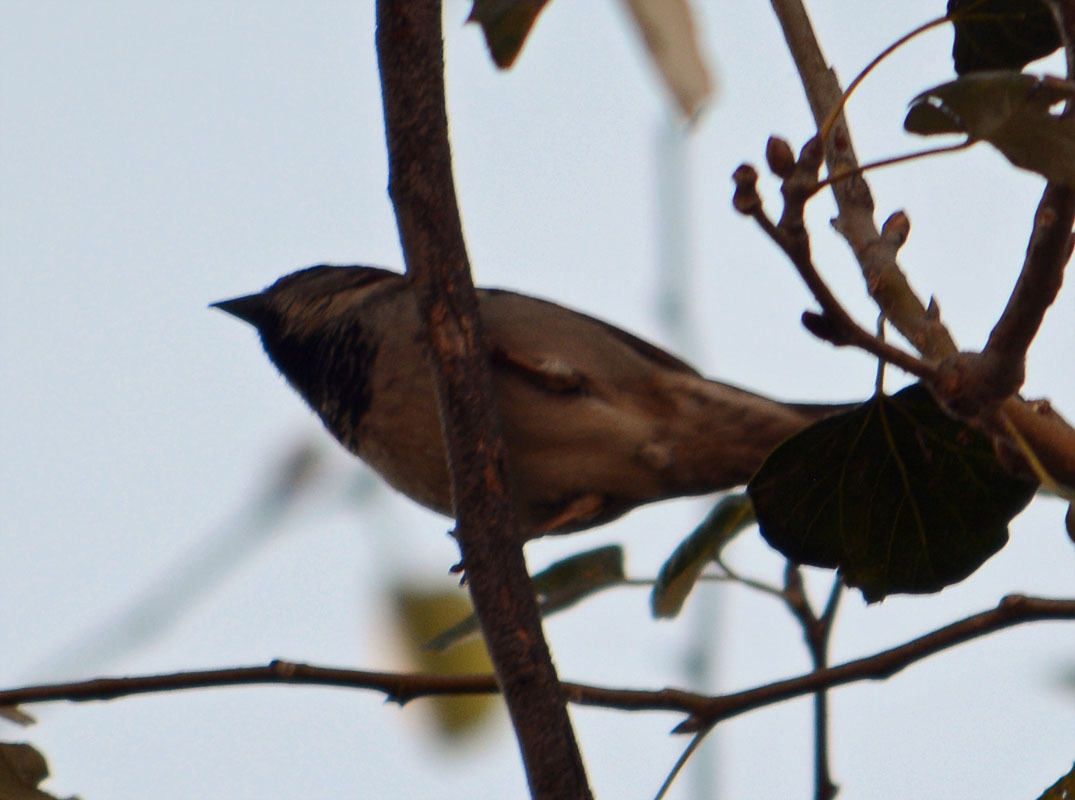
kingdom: Animalia
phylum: Chordata
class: Aves
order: Passeriformes
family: Passeridae
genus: Passer
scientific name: Passer domesticus
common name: House sparrow
